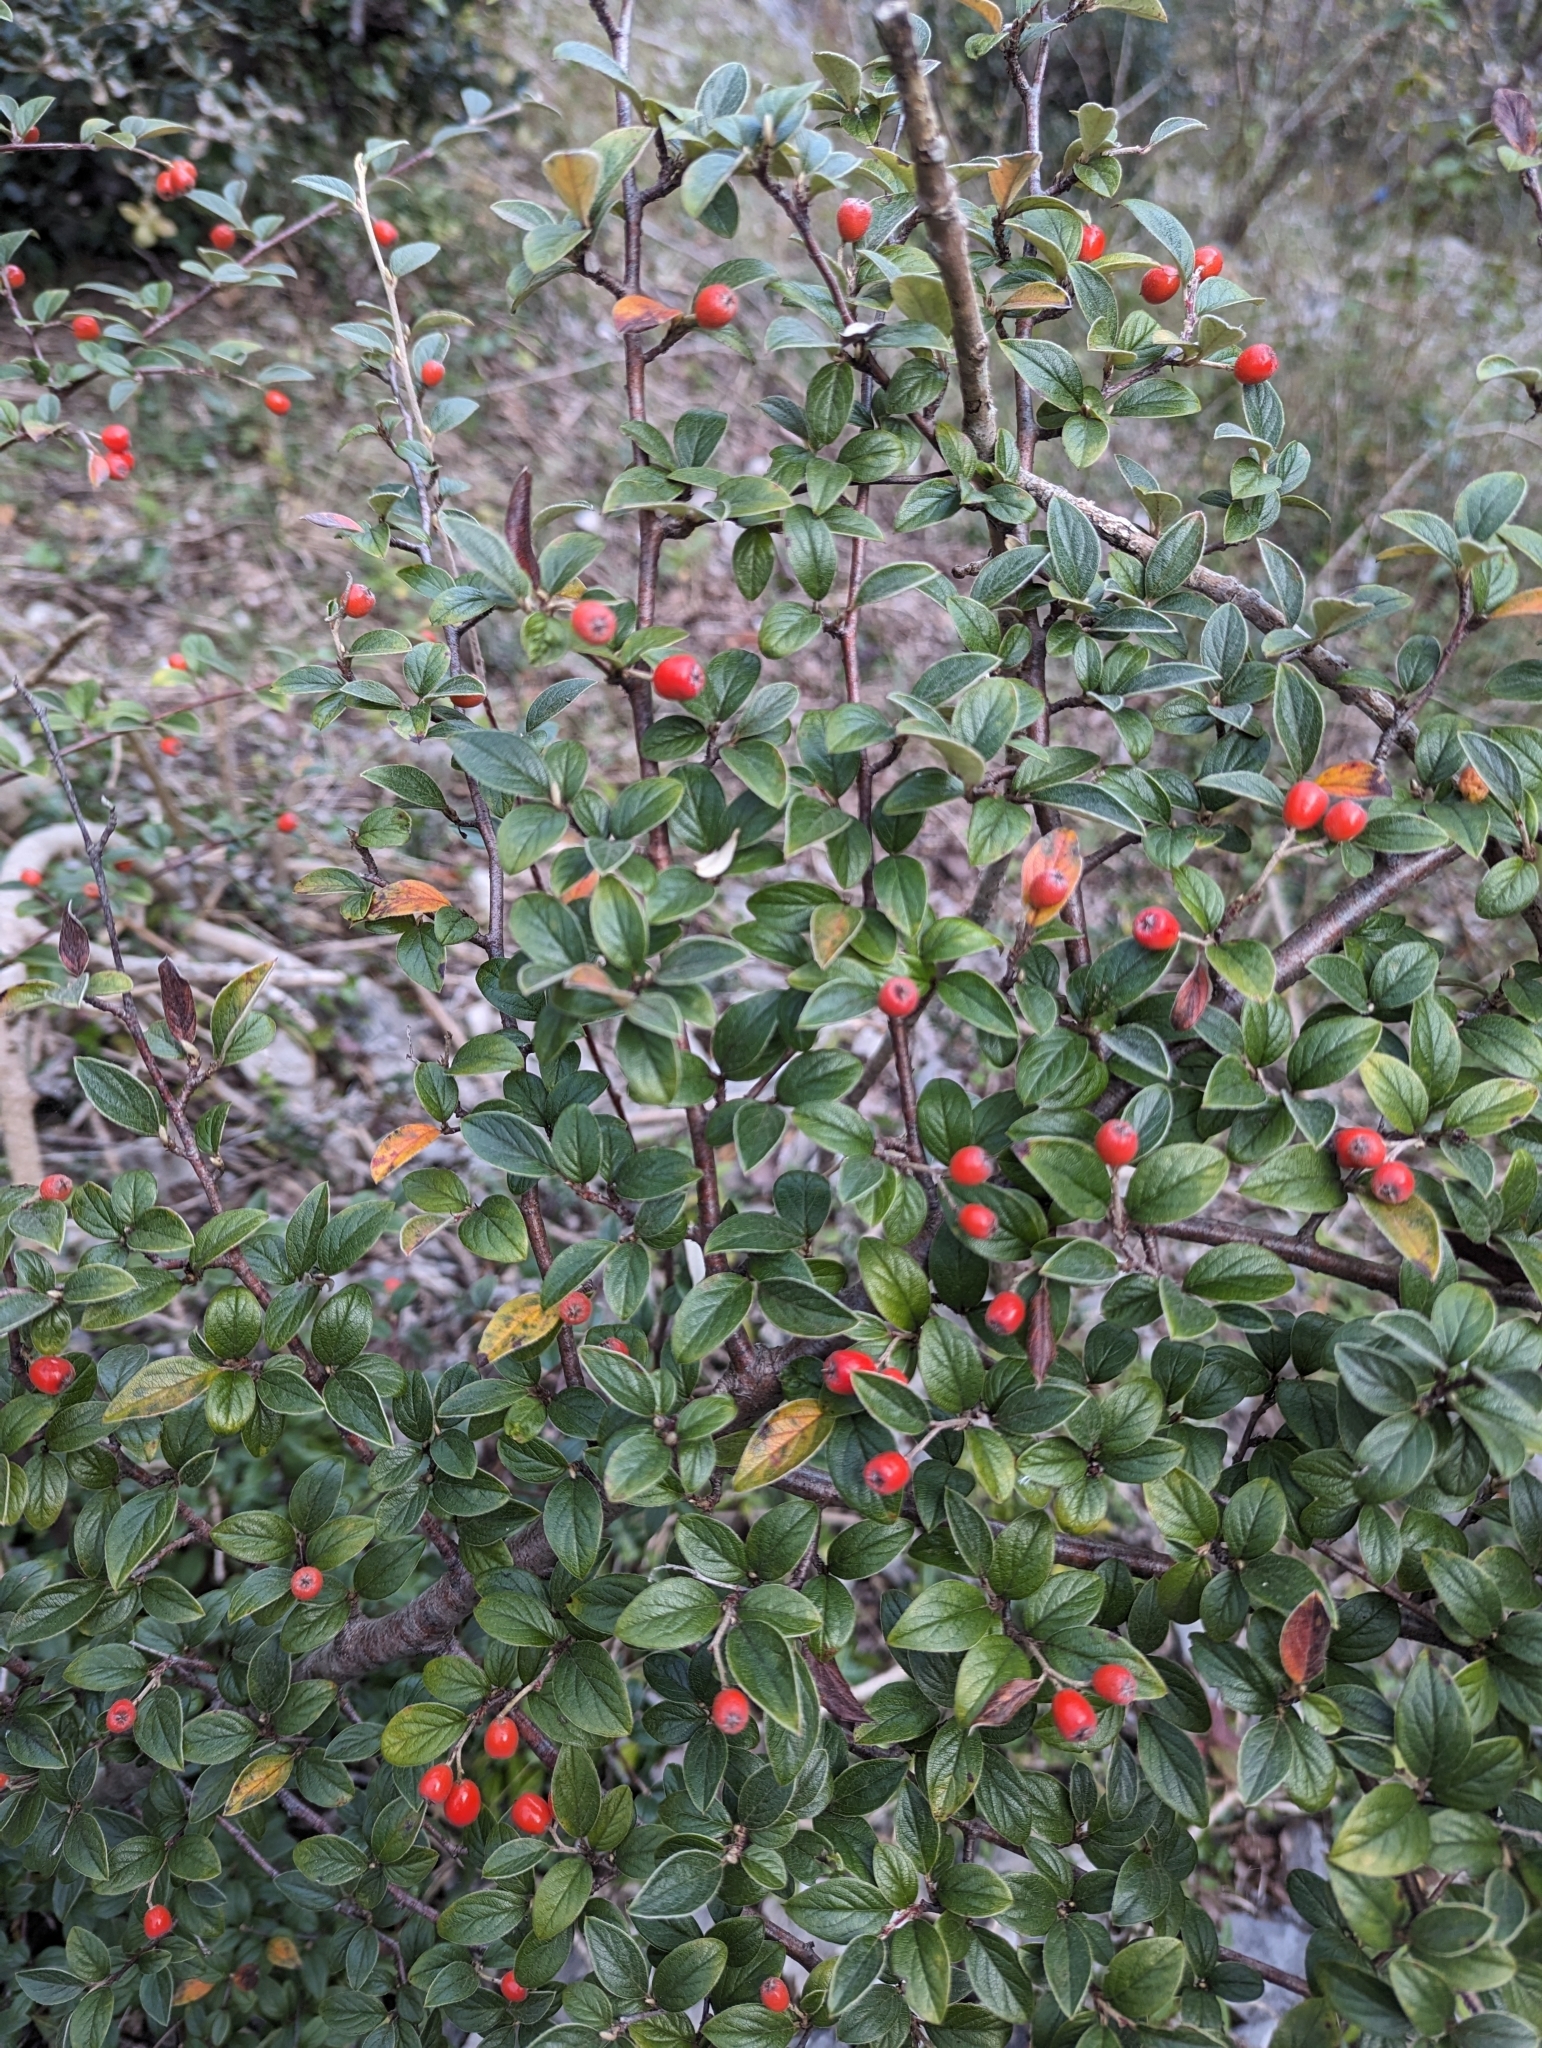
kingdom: Plantae
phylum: Tracheophyta
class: Magnoliopsida
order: Rosales
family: Rosaceae
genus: Cotoneaster
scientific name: Cotoneaster franchetii
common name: Franchet's cotoneaster
